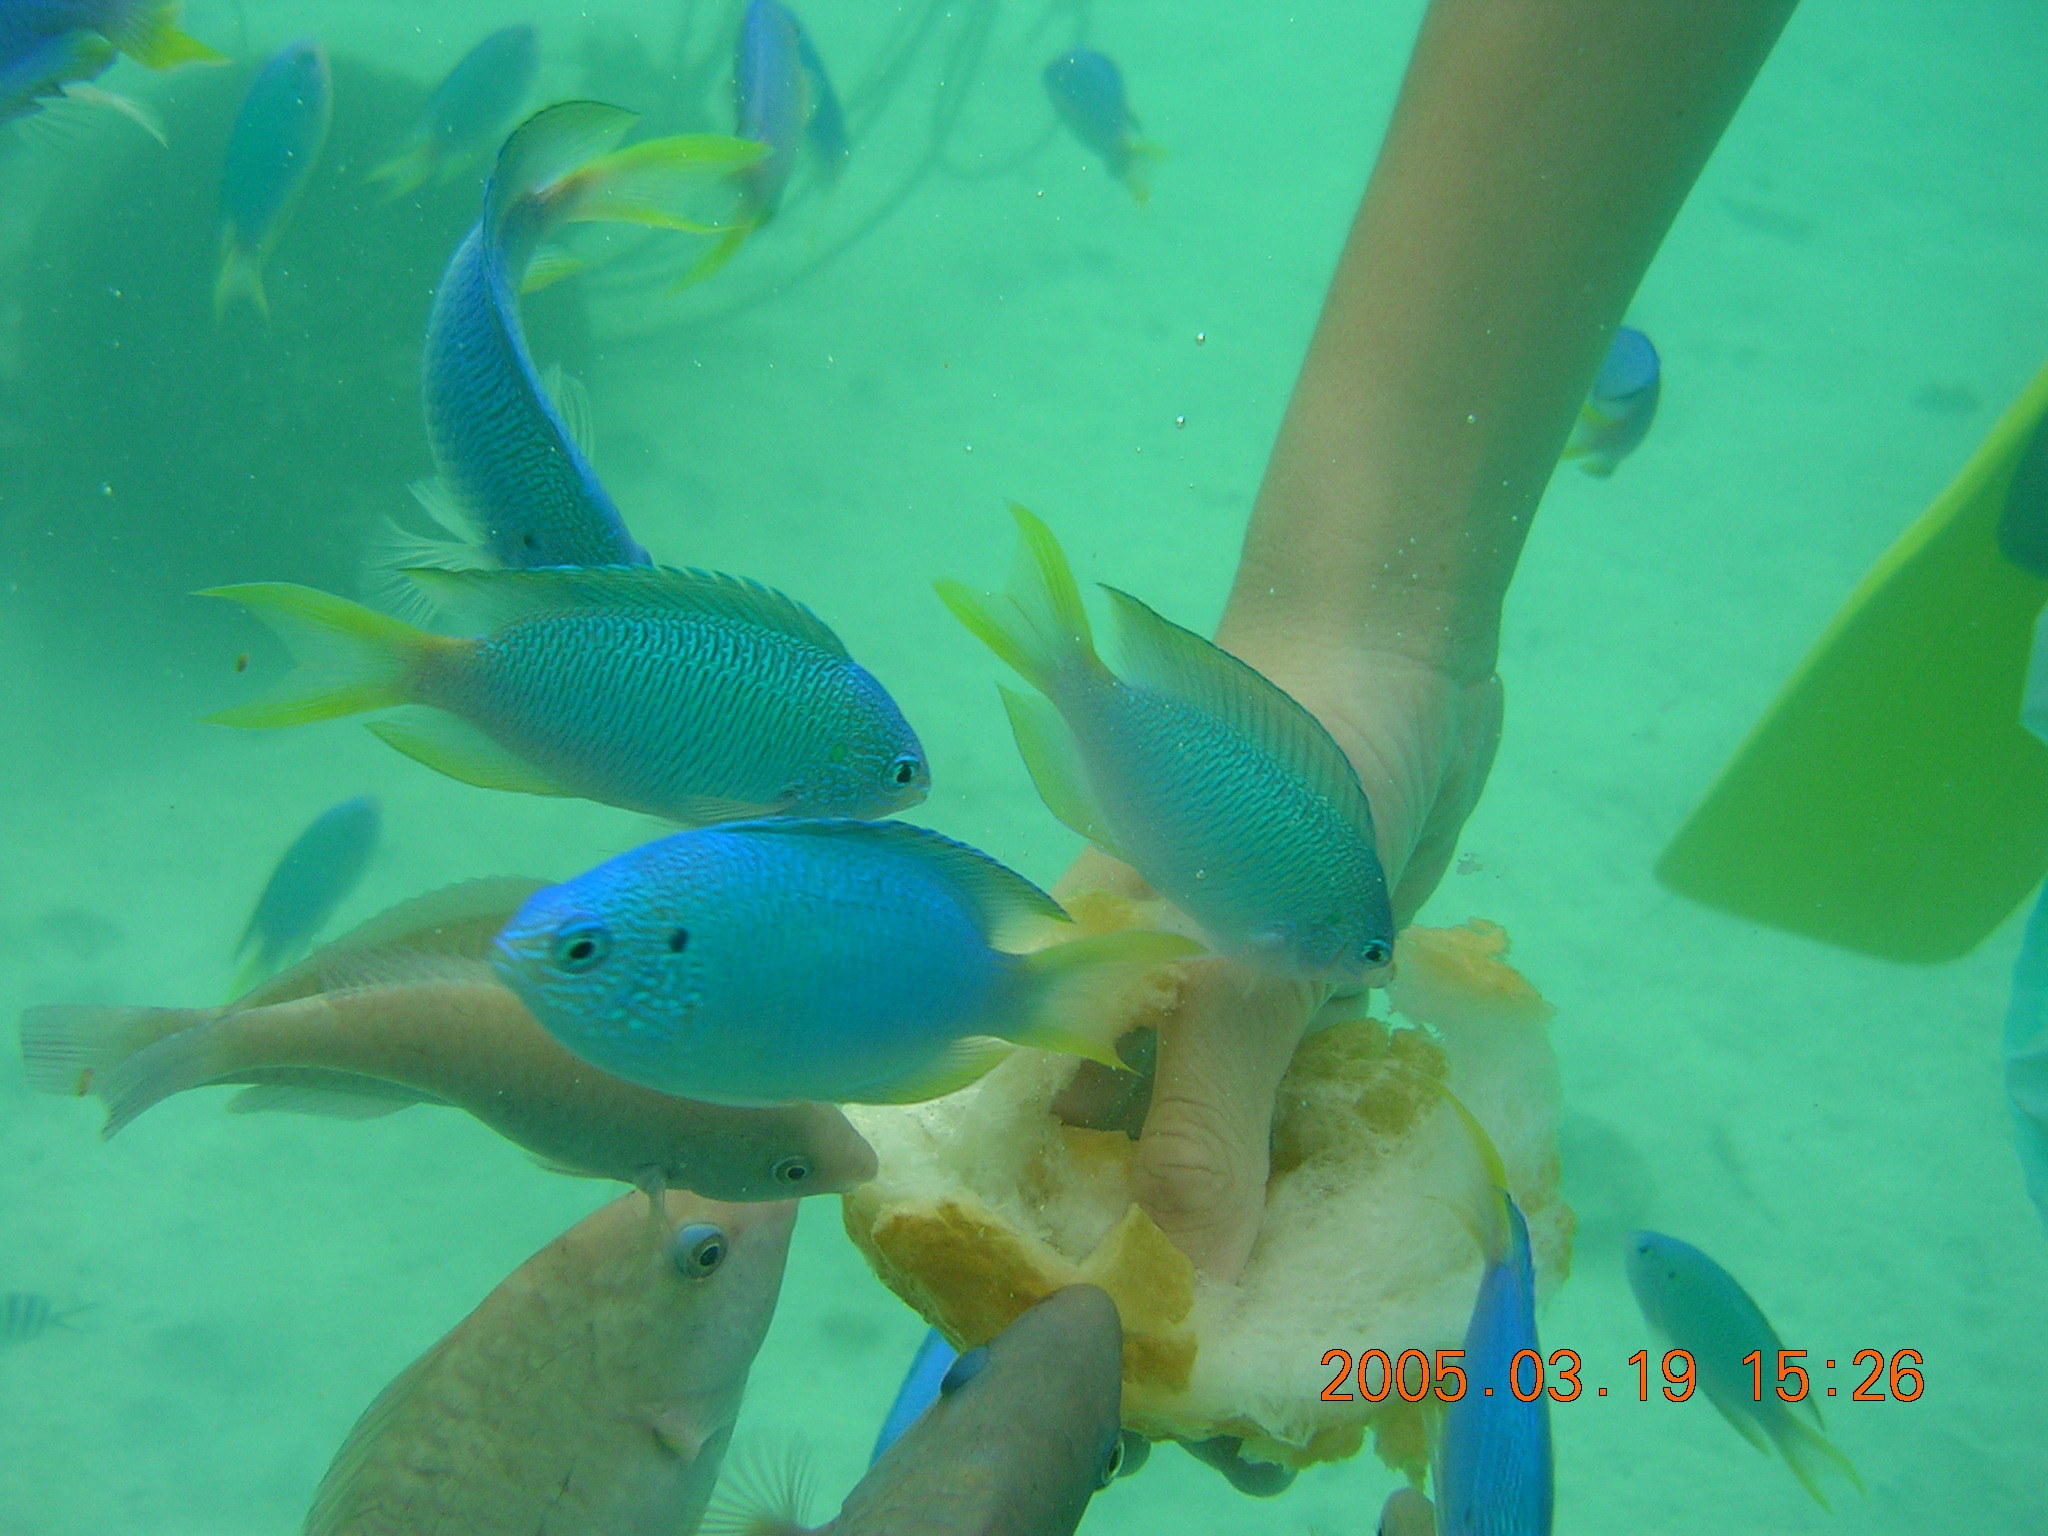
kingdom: Animalia
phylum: Chordata
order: Perciformes
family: Pomacentridae
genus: Pomacentrus
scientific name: Pomacentrus pavo
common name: Sapphire damsel
